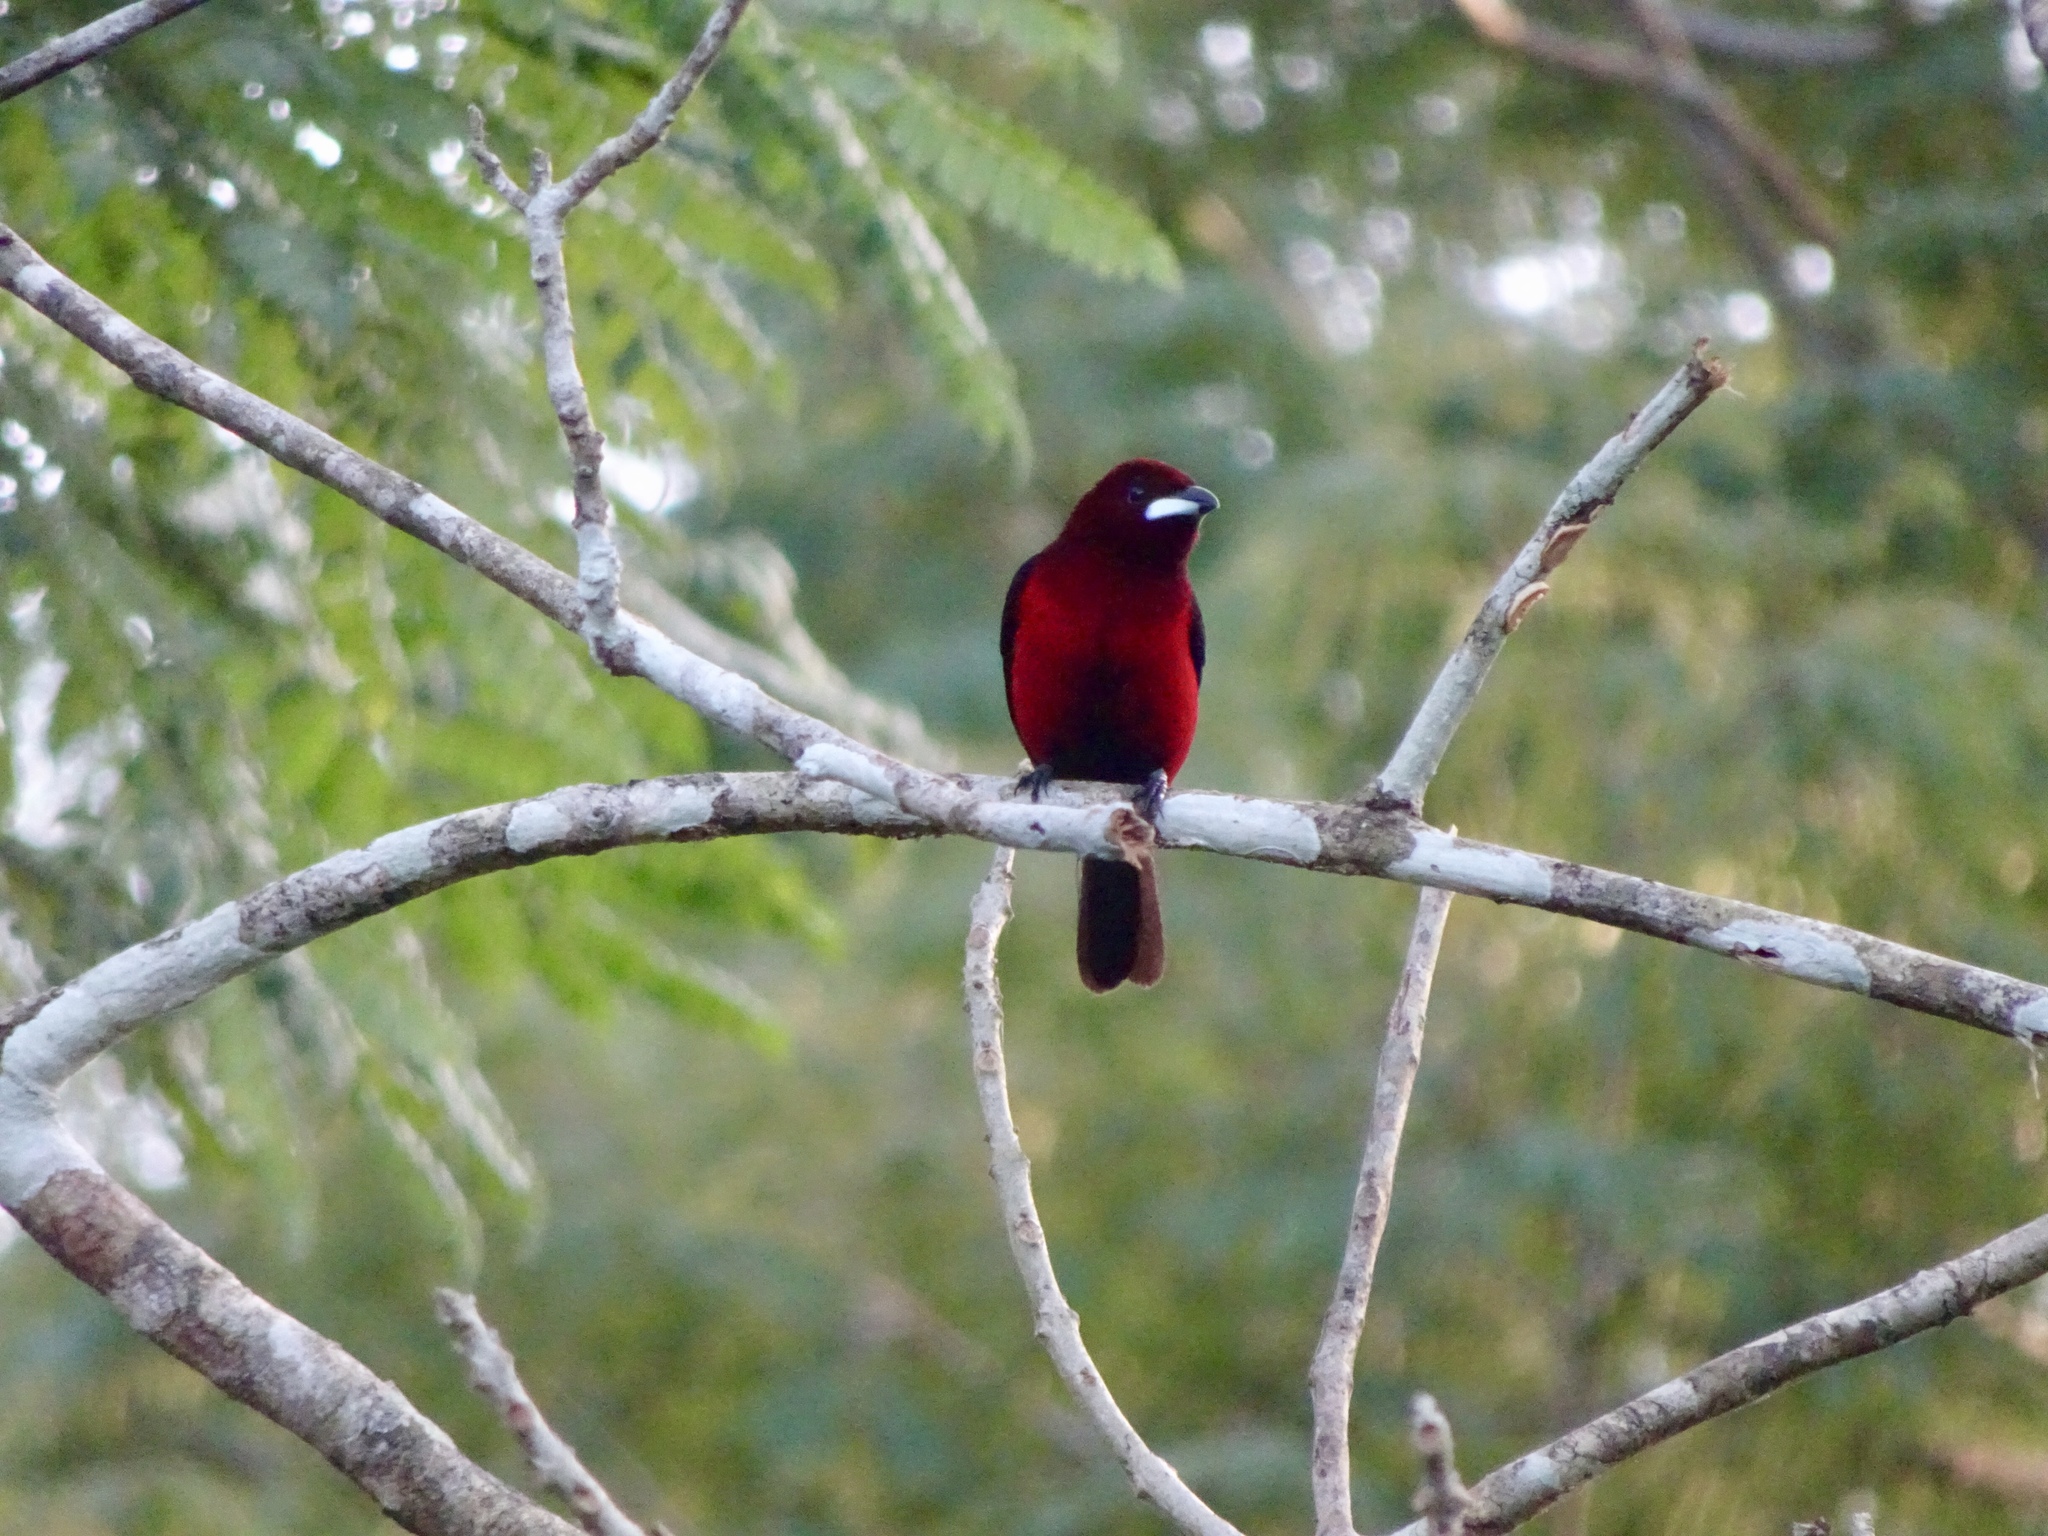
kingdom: Animalia
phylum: Chordata
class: Aves
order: Passeriformes
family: Thraupidae
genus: Ramphocelus
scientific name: Ramphocelus dimidiatus
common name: Crimson-backed tanager
